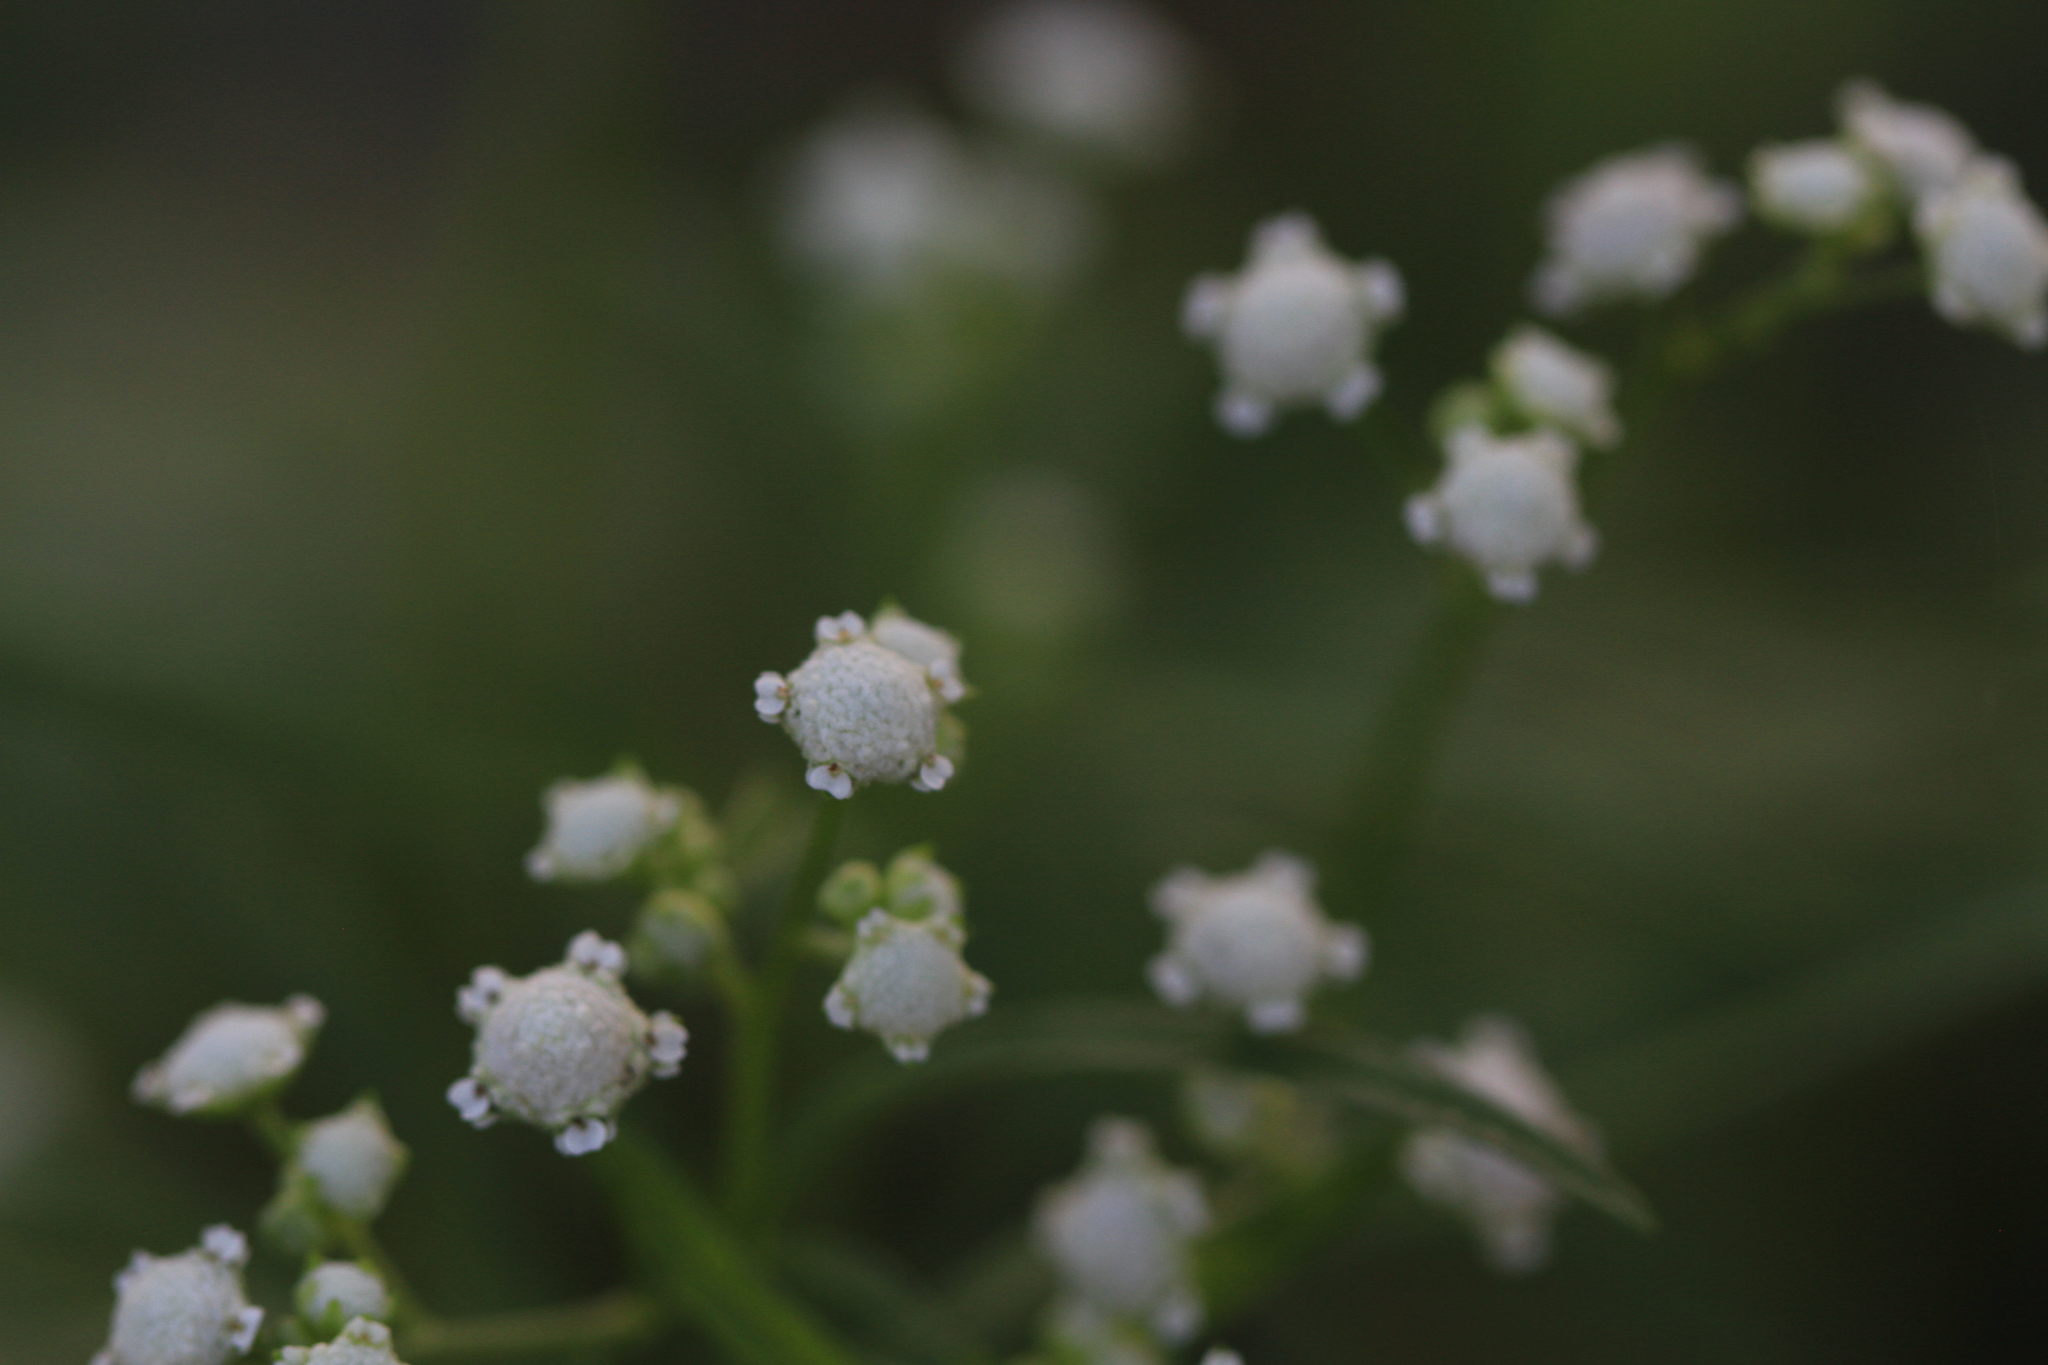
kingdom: Plantae
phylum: Tracheophyta
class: Magnoliopsida
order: Asterales
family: Asteraceae
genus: Parthenium
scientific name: Parthenium hysterophorus
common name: Santa maria feverfew
